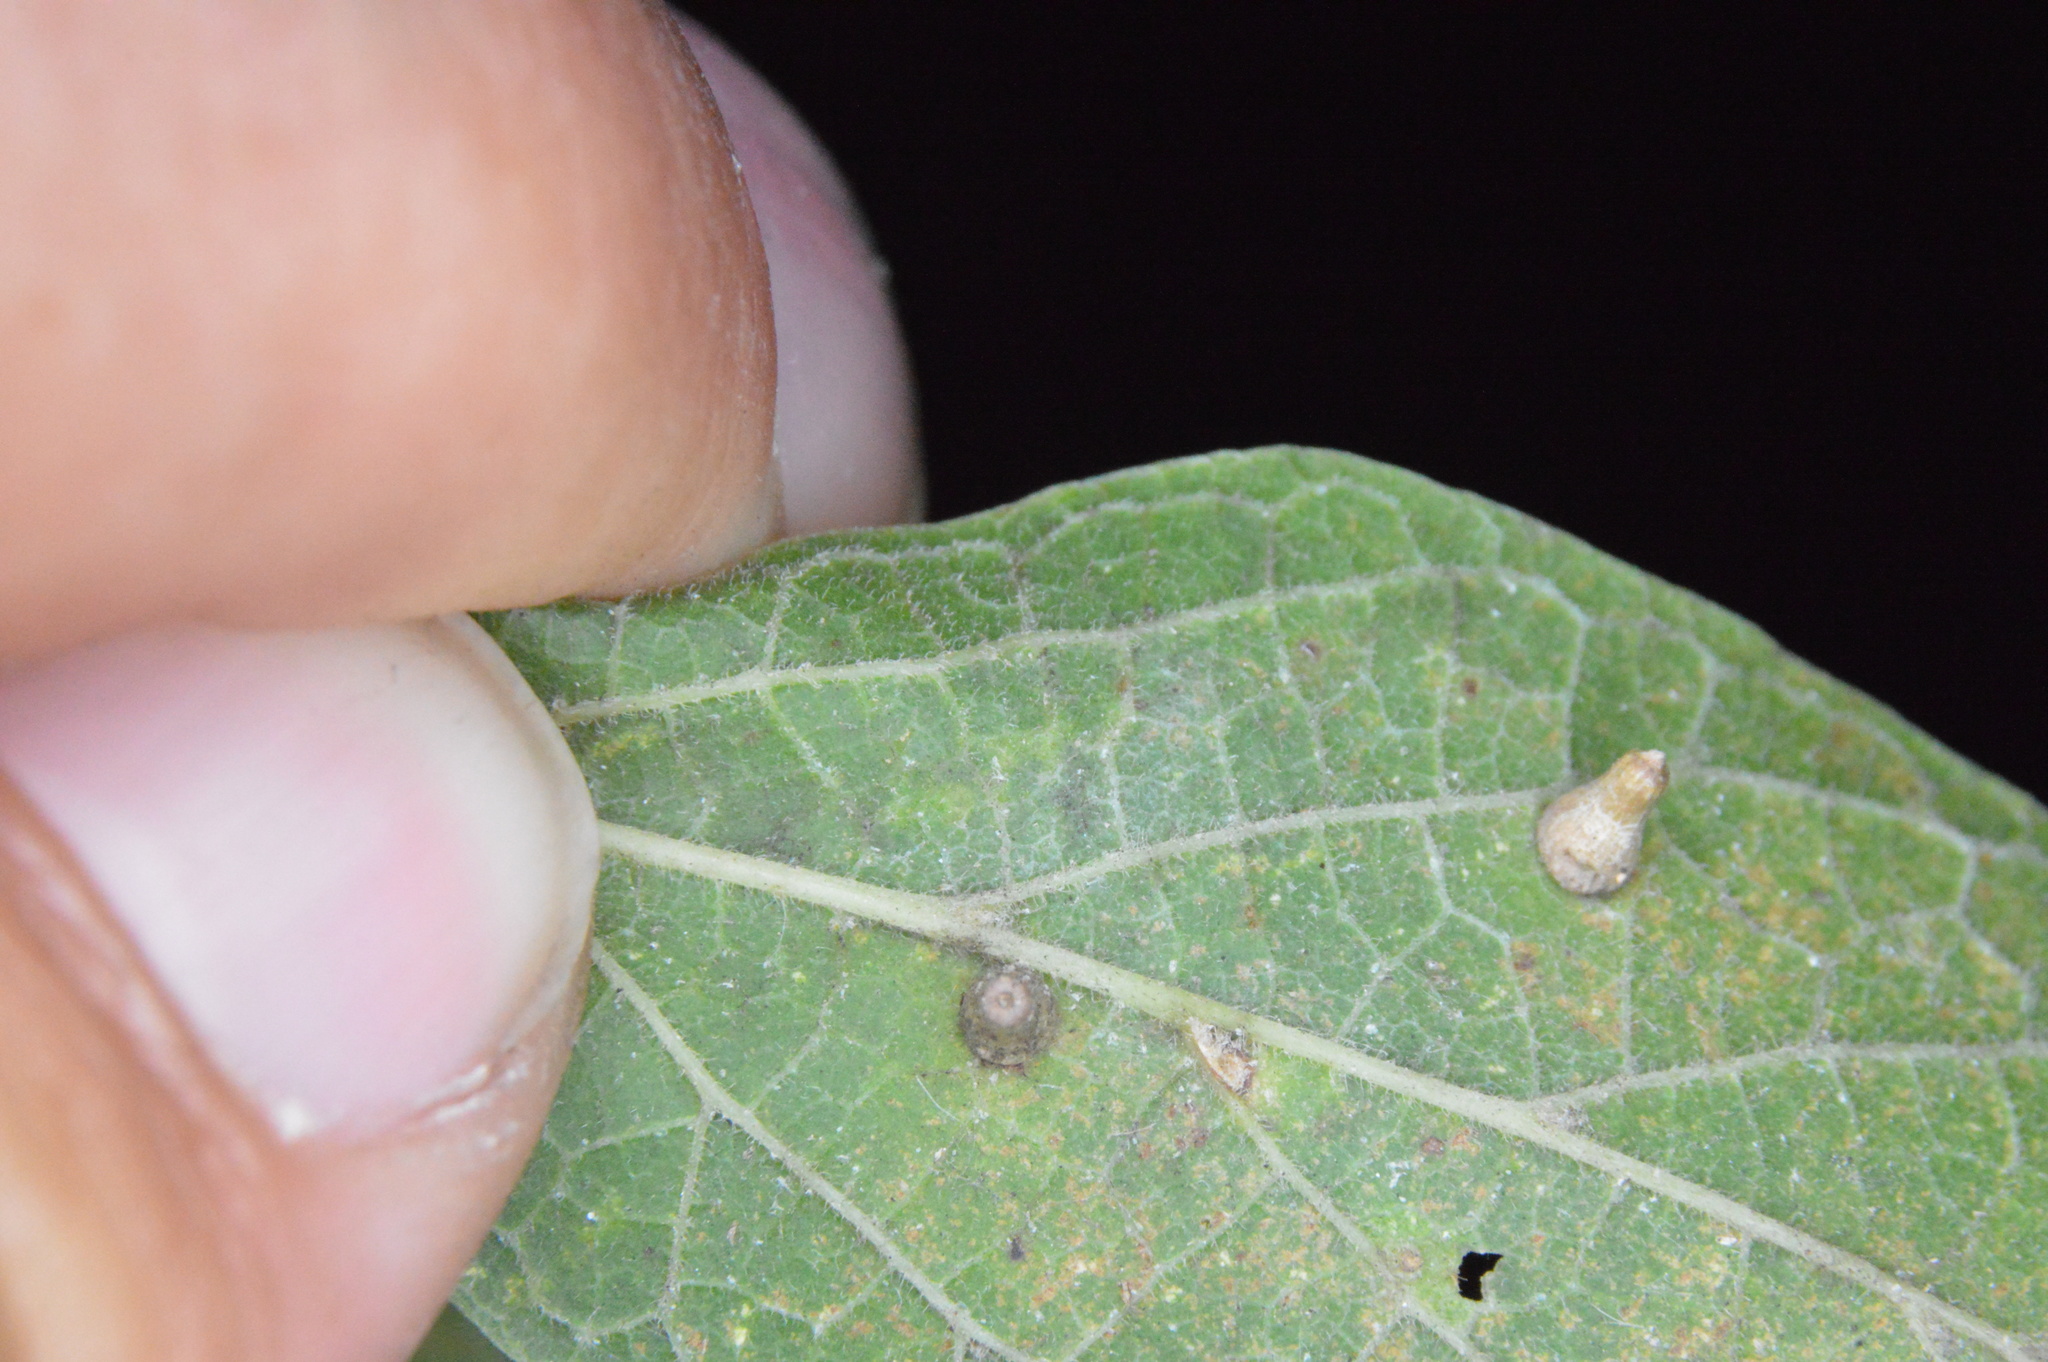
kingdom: Animalia
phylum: Arthropoda
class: Insecta
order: Diptera
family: Cecidomyiidae
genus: Celticecis
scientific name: Celticecis aciculata
